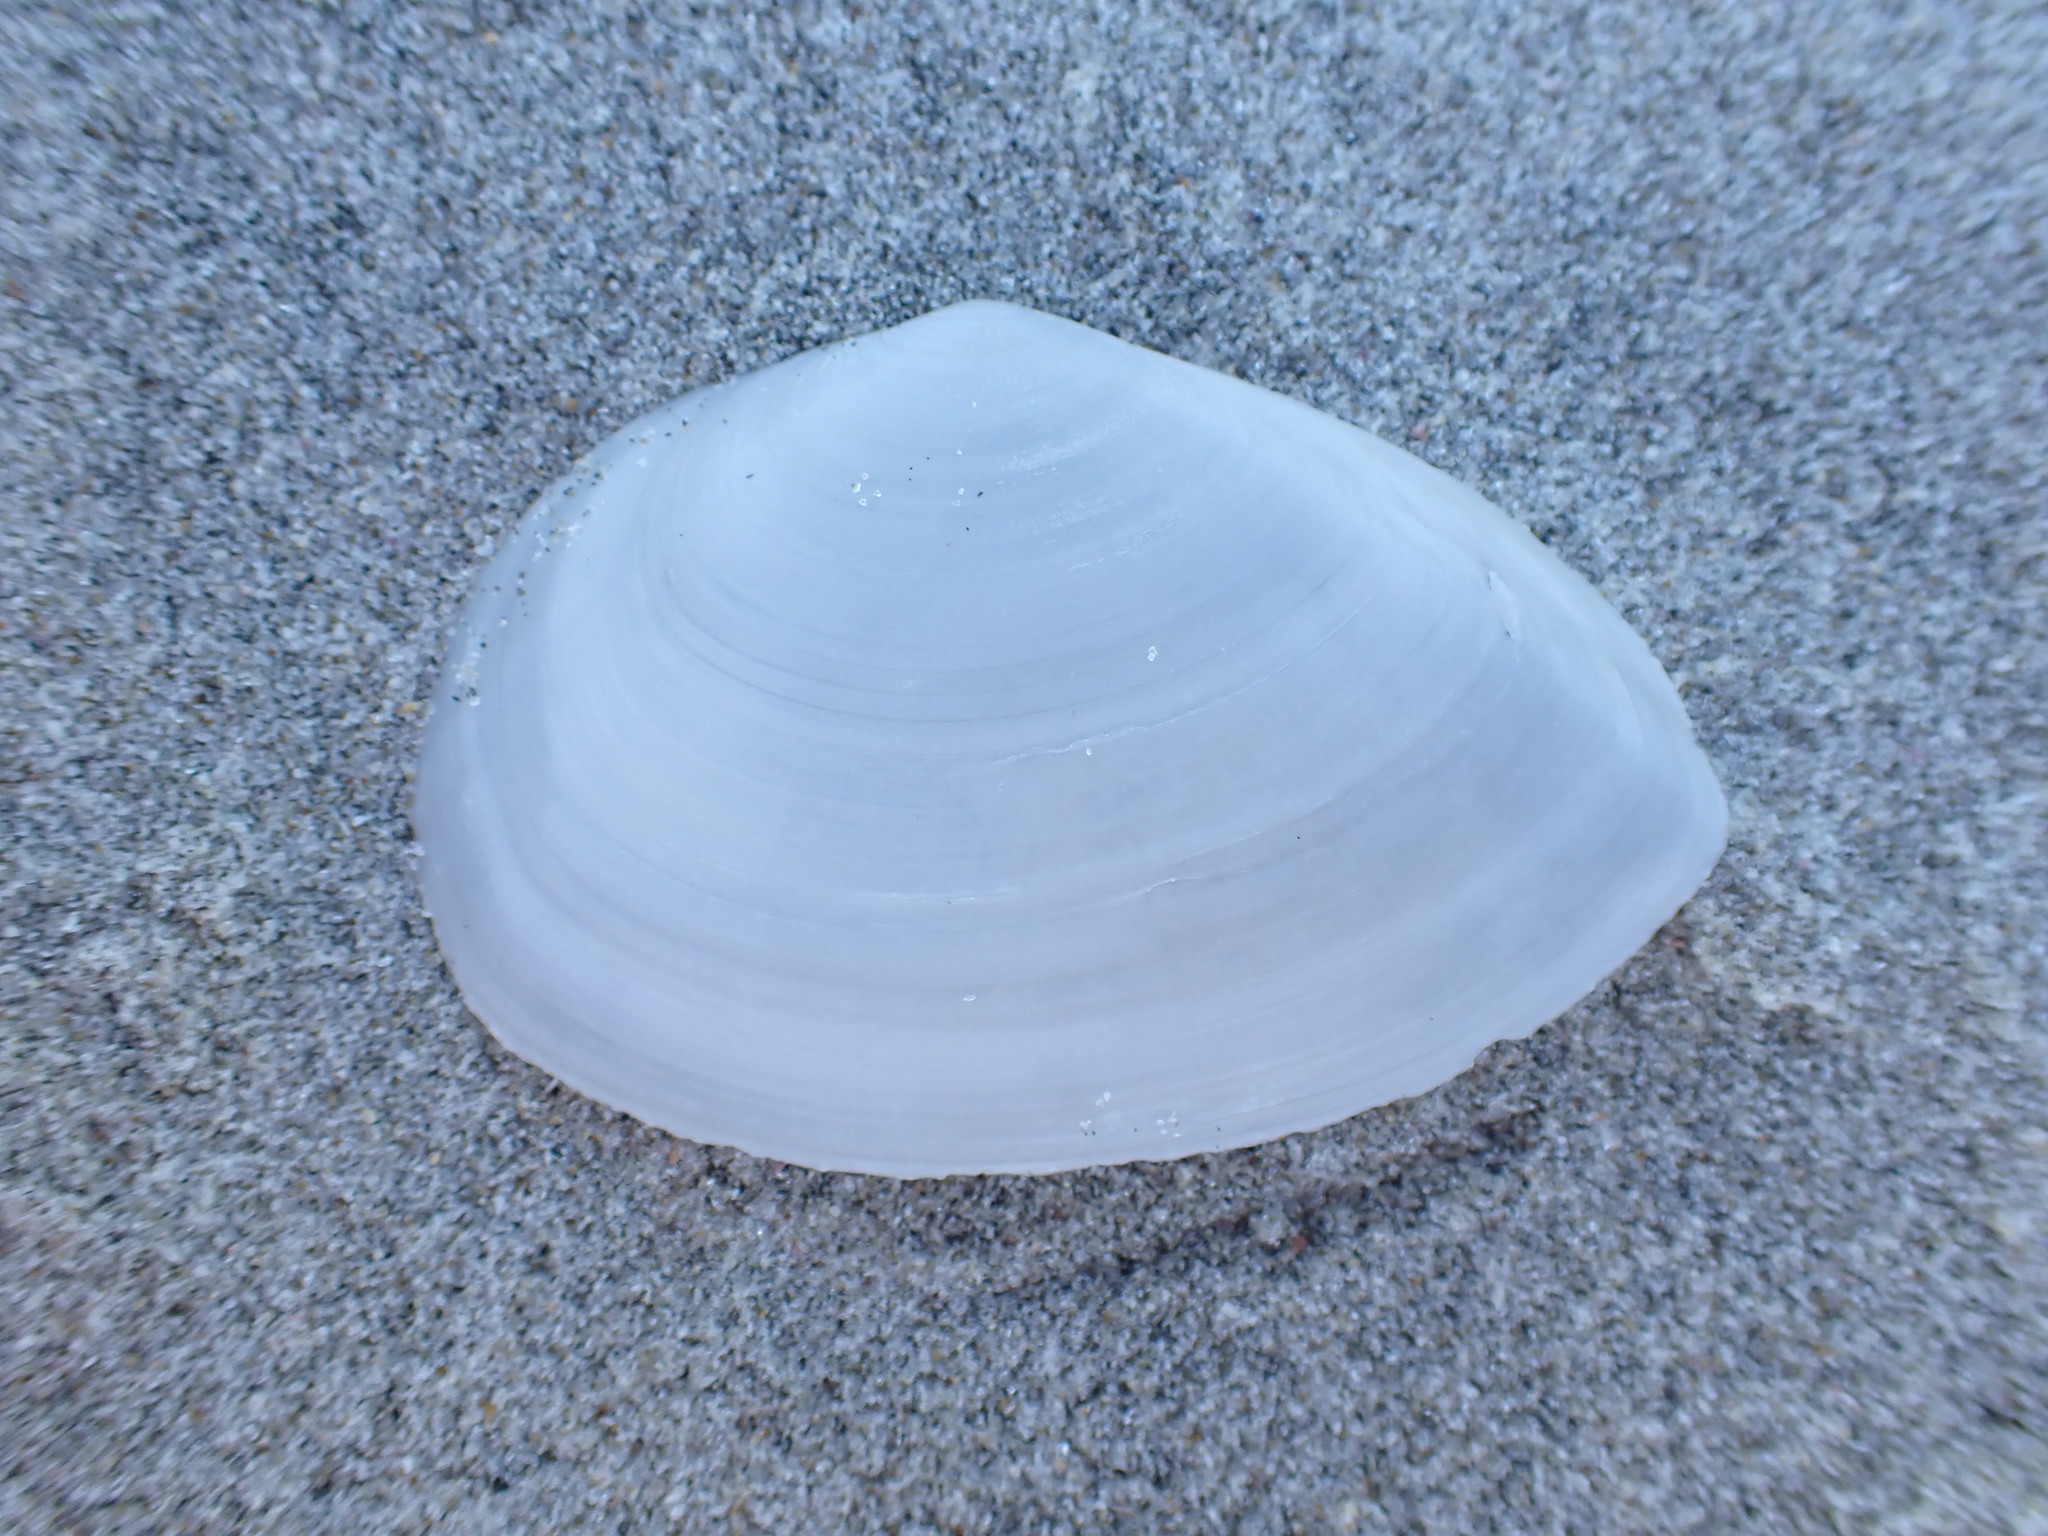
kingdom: Animalia
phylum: Mollusca
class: Bivalvia
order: Cardiida
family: Tellinidae
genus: Bartschicoma
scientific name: Bartschicoma gaimardi
